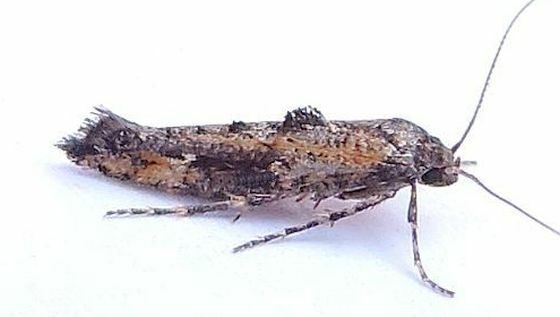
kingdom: Animalia
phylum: Arthropoda
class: Insecta
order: Lepidoptera
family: Epermeniidae
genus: Epermenia
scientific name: Epermenia albapunctella
